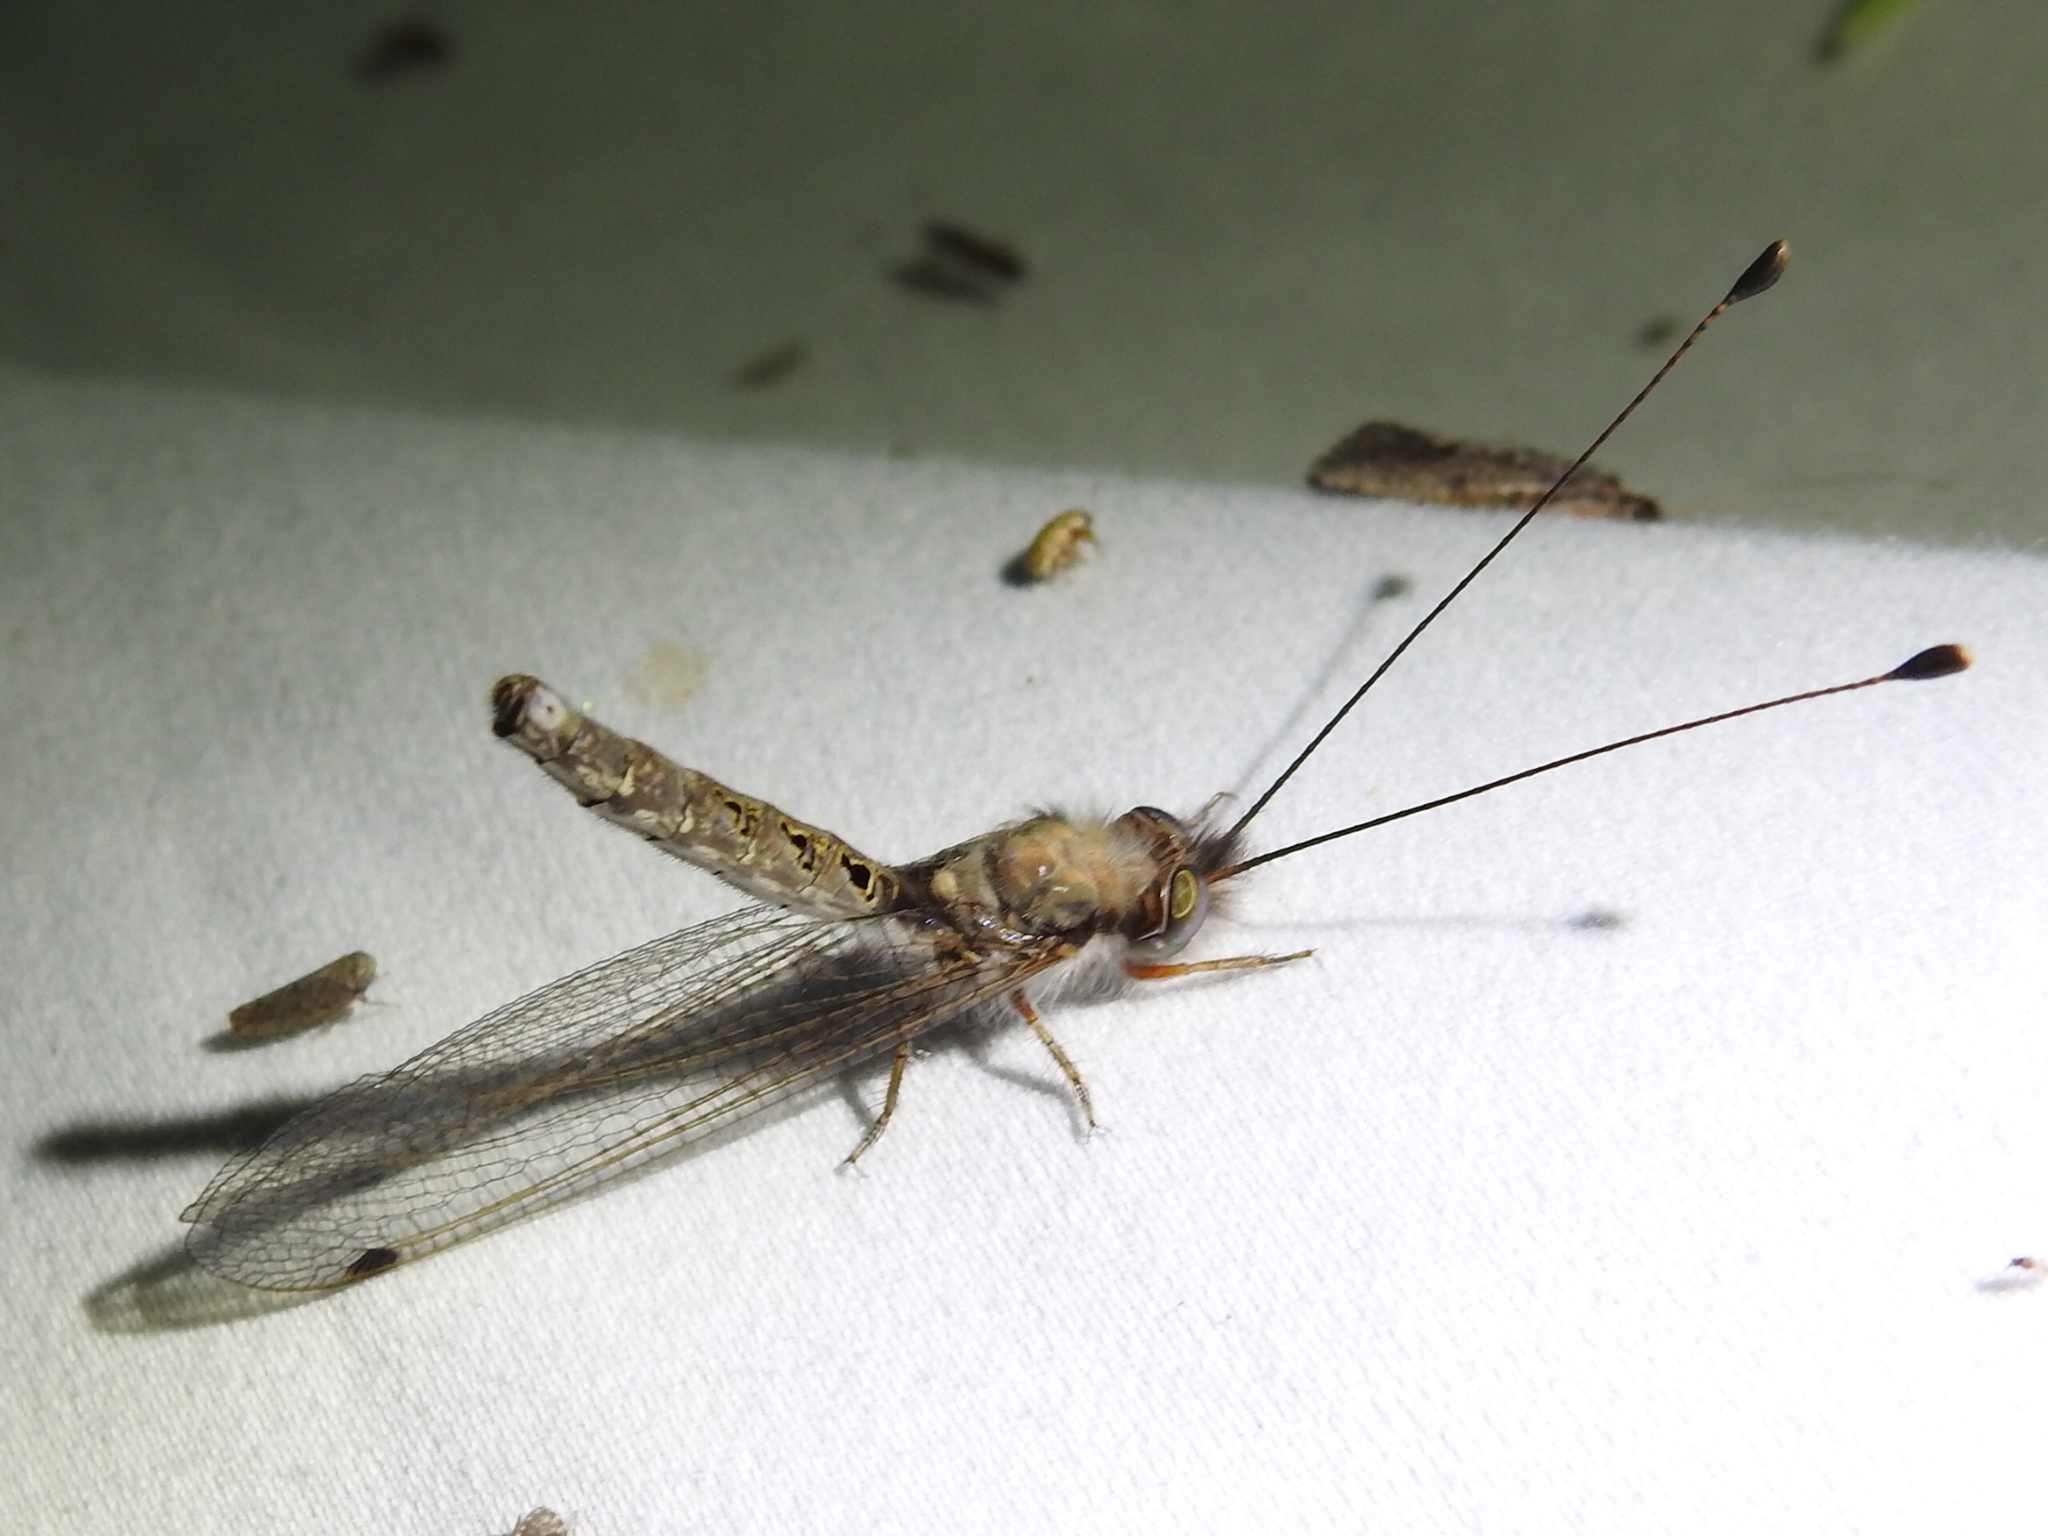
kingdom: Animalia
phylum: Arthropoda
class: Insecta
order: Neuroptera
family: Ascalaphidae
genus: Ululodes
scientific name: Ululodes macleayanus
